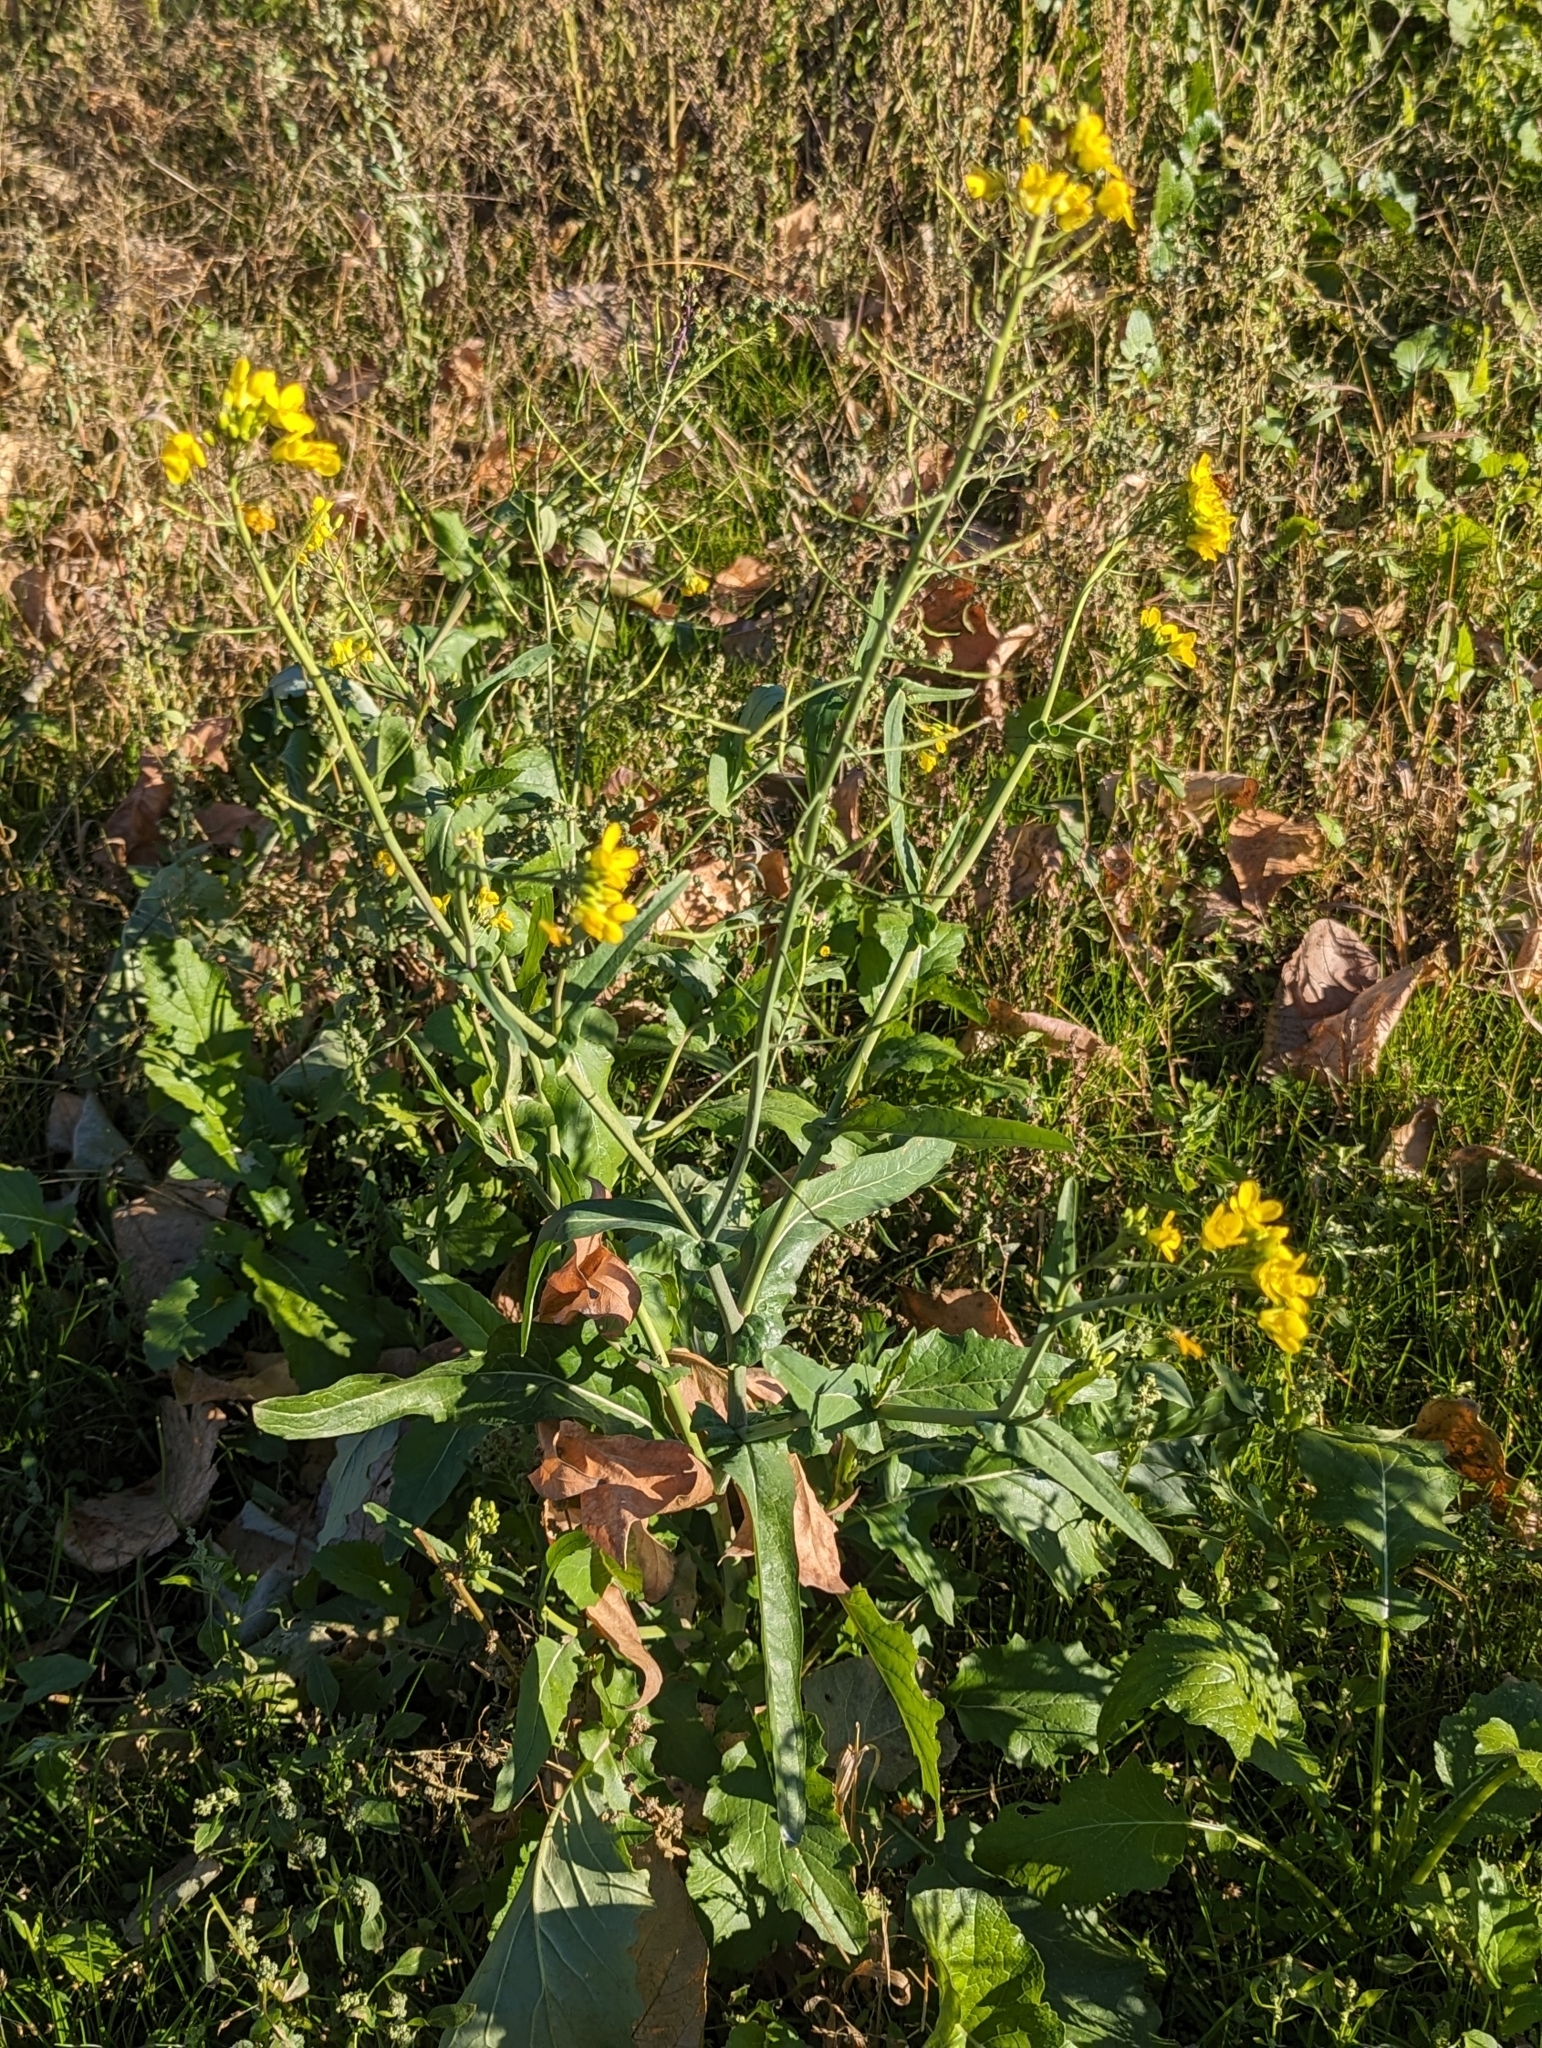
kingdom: Plantae
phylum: Tracheophyta
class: Magnoliopsida
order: Brassicales
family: Brassicaceae
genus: Brassica
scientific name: Brassica rapa
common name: Field mustard
